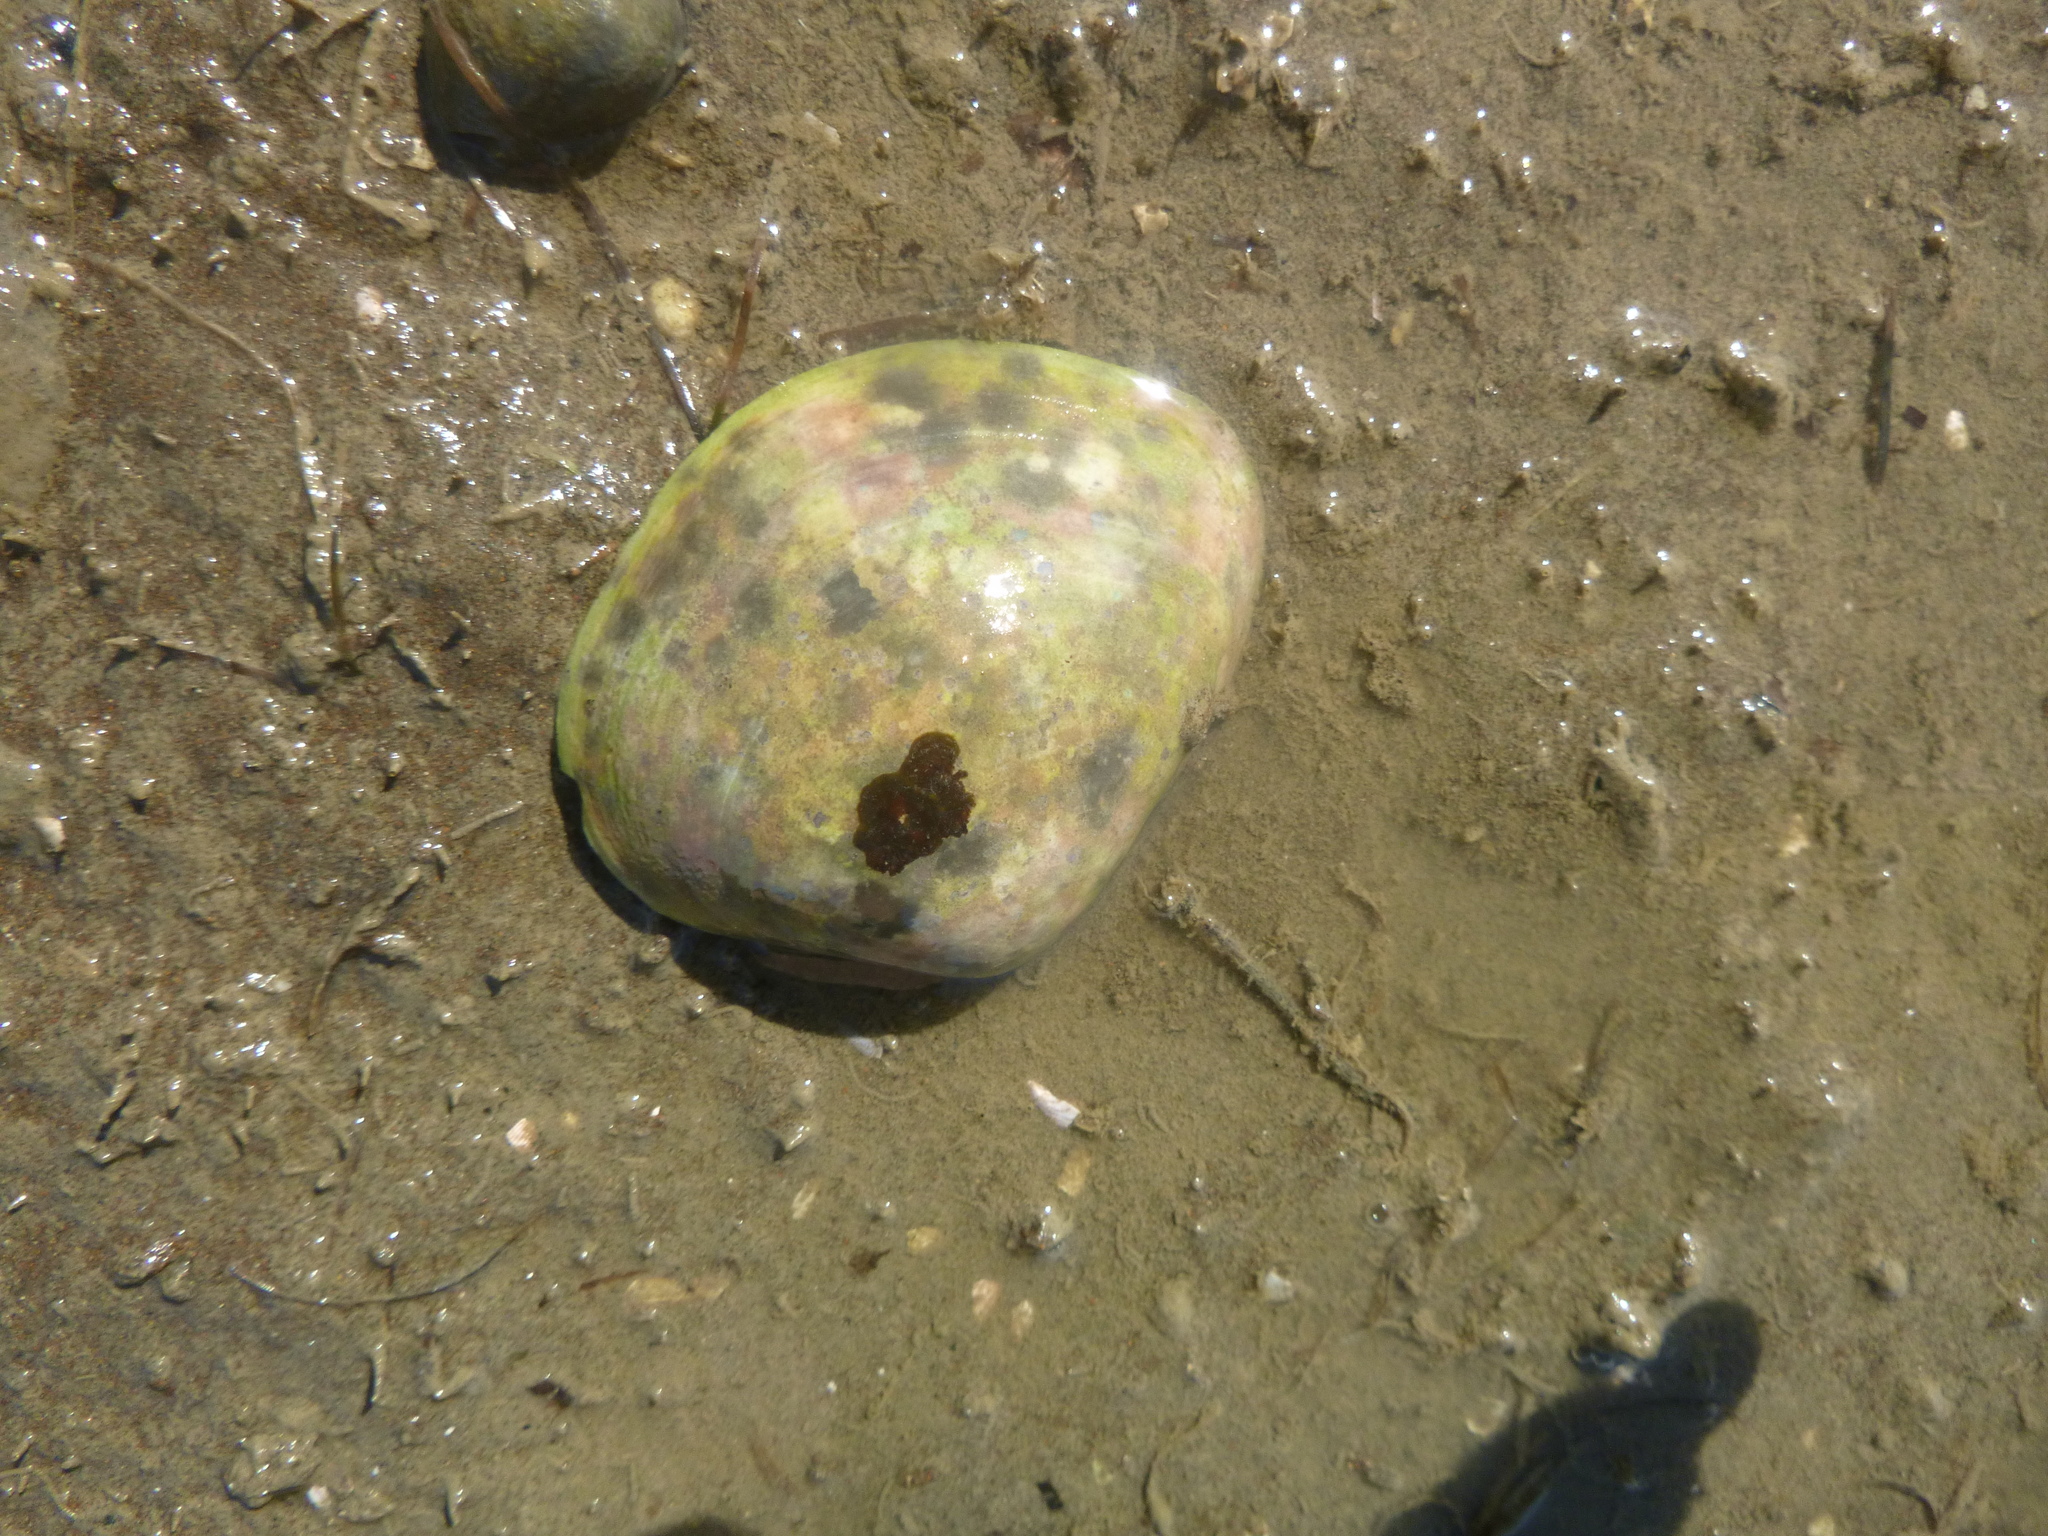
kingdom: Animalia
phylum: Mollusca
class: Bivalvia
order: Venerida
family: Mactridae
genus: Cyclomactra
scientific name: Cyclomactra ovata
